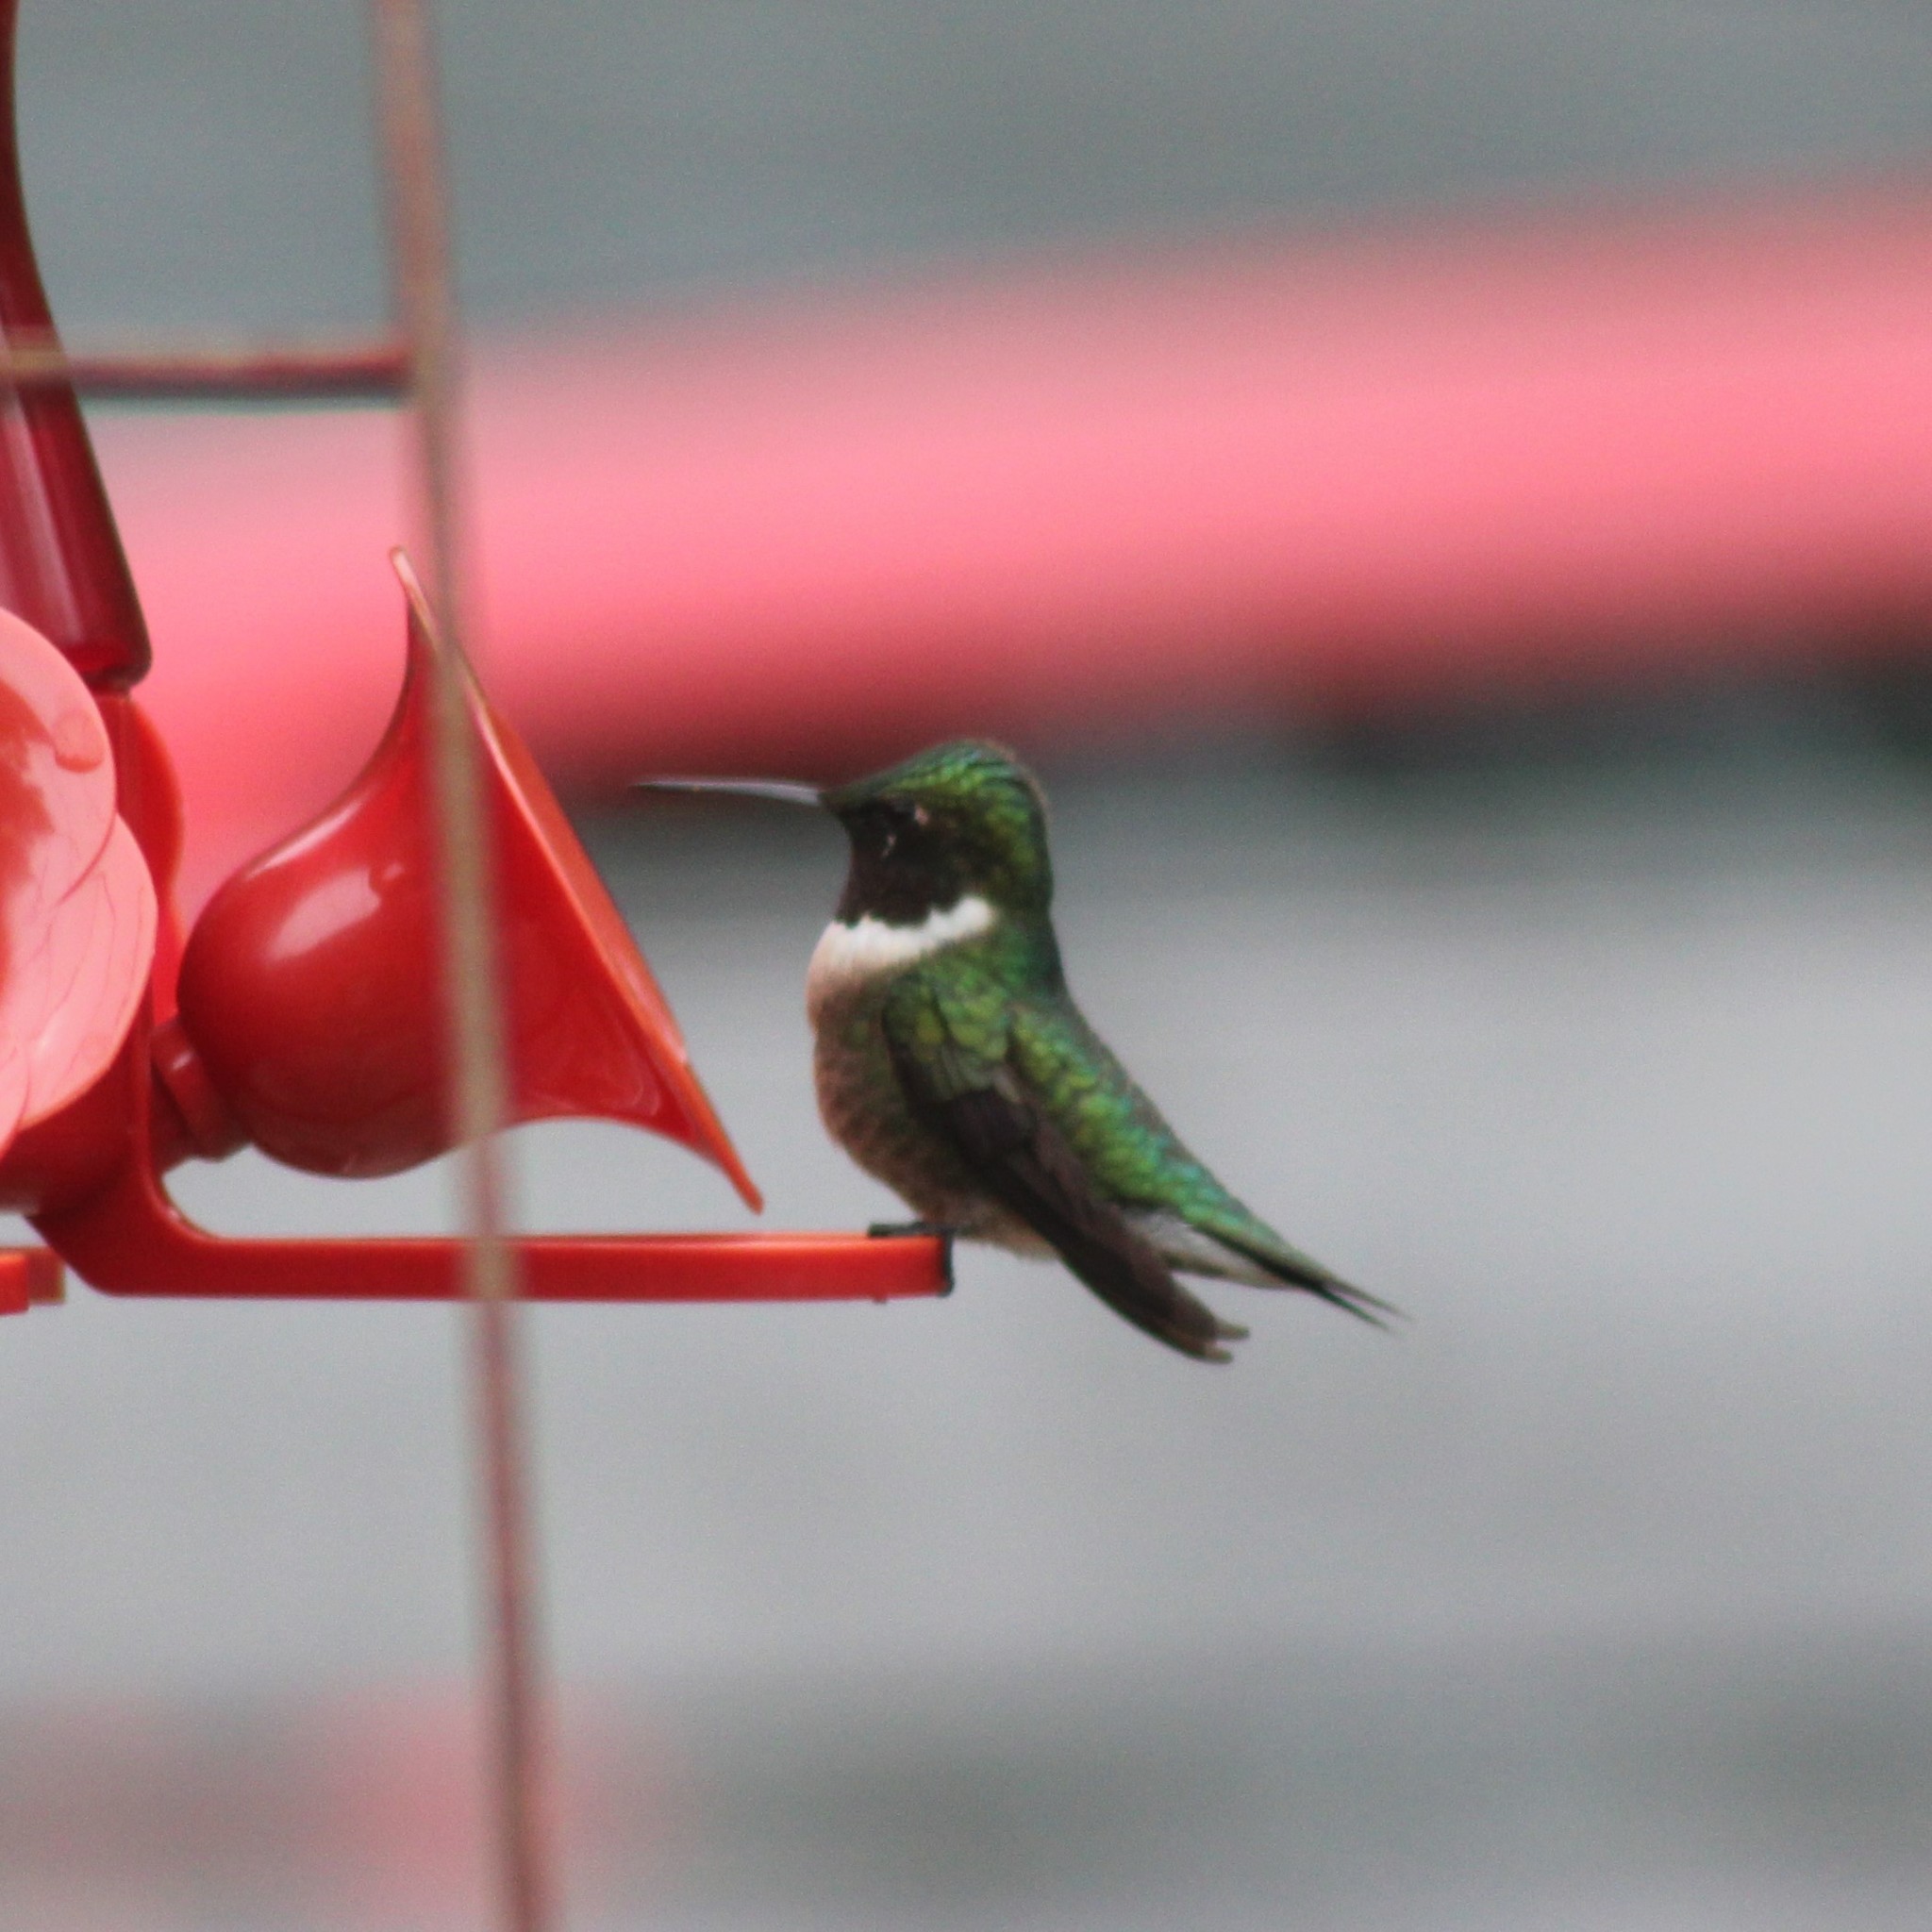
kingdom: Animalia
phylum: Chordata
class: Aves
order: Apodiformes
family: Trochilidae
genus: Archilochus
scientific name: Archilochus colubris
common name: Ruby-throated hummingbird
